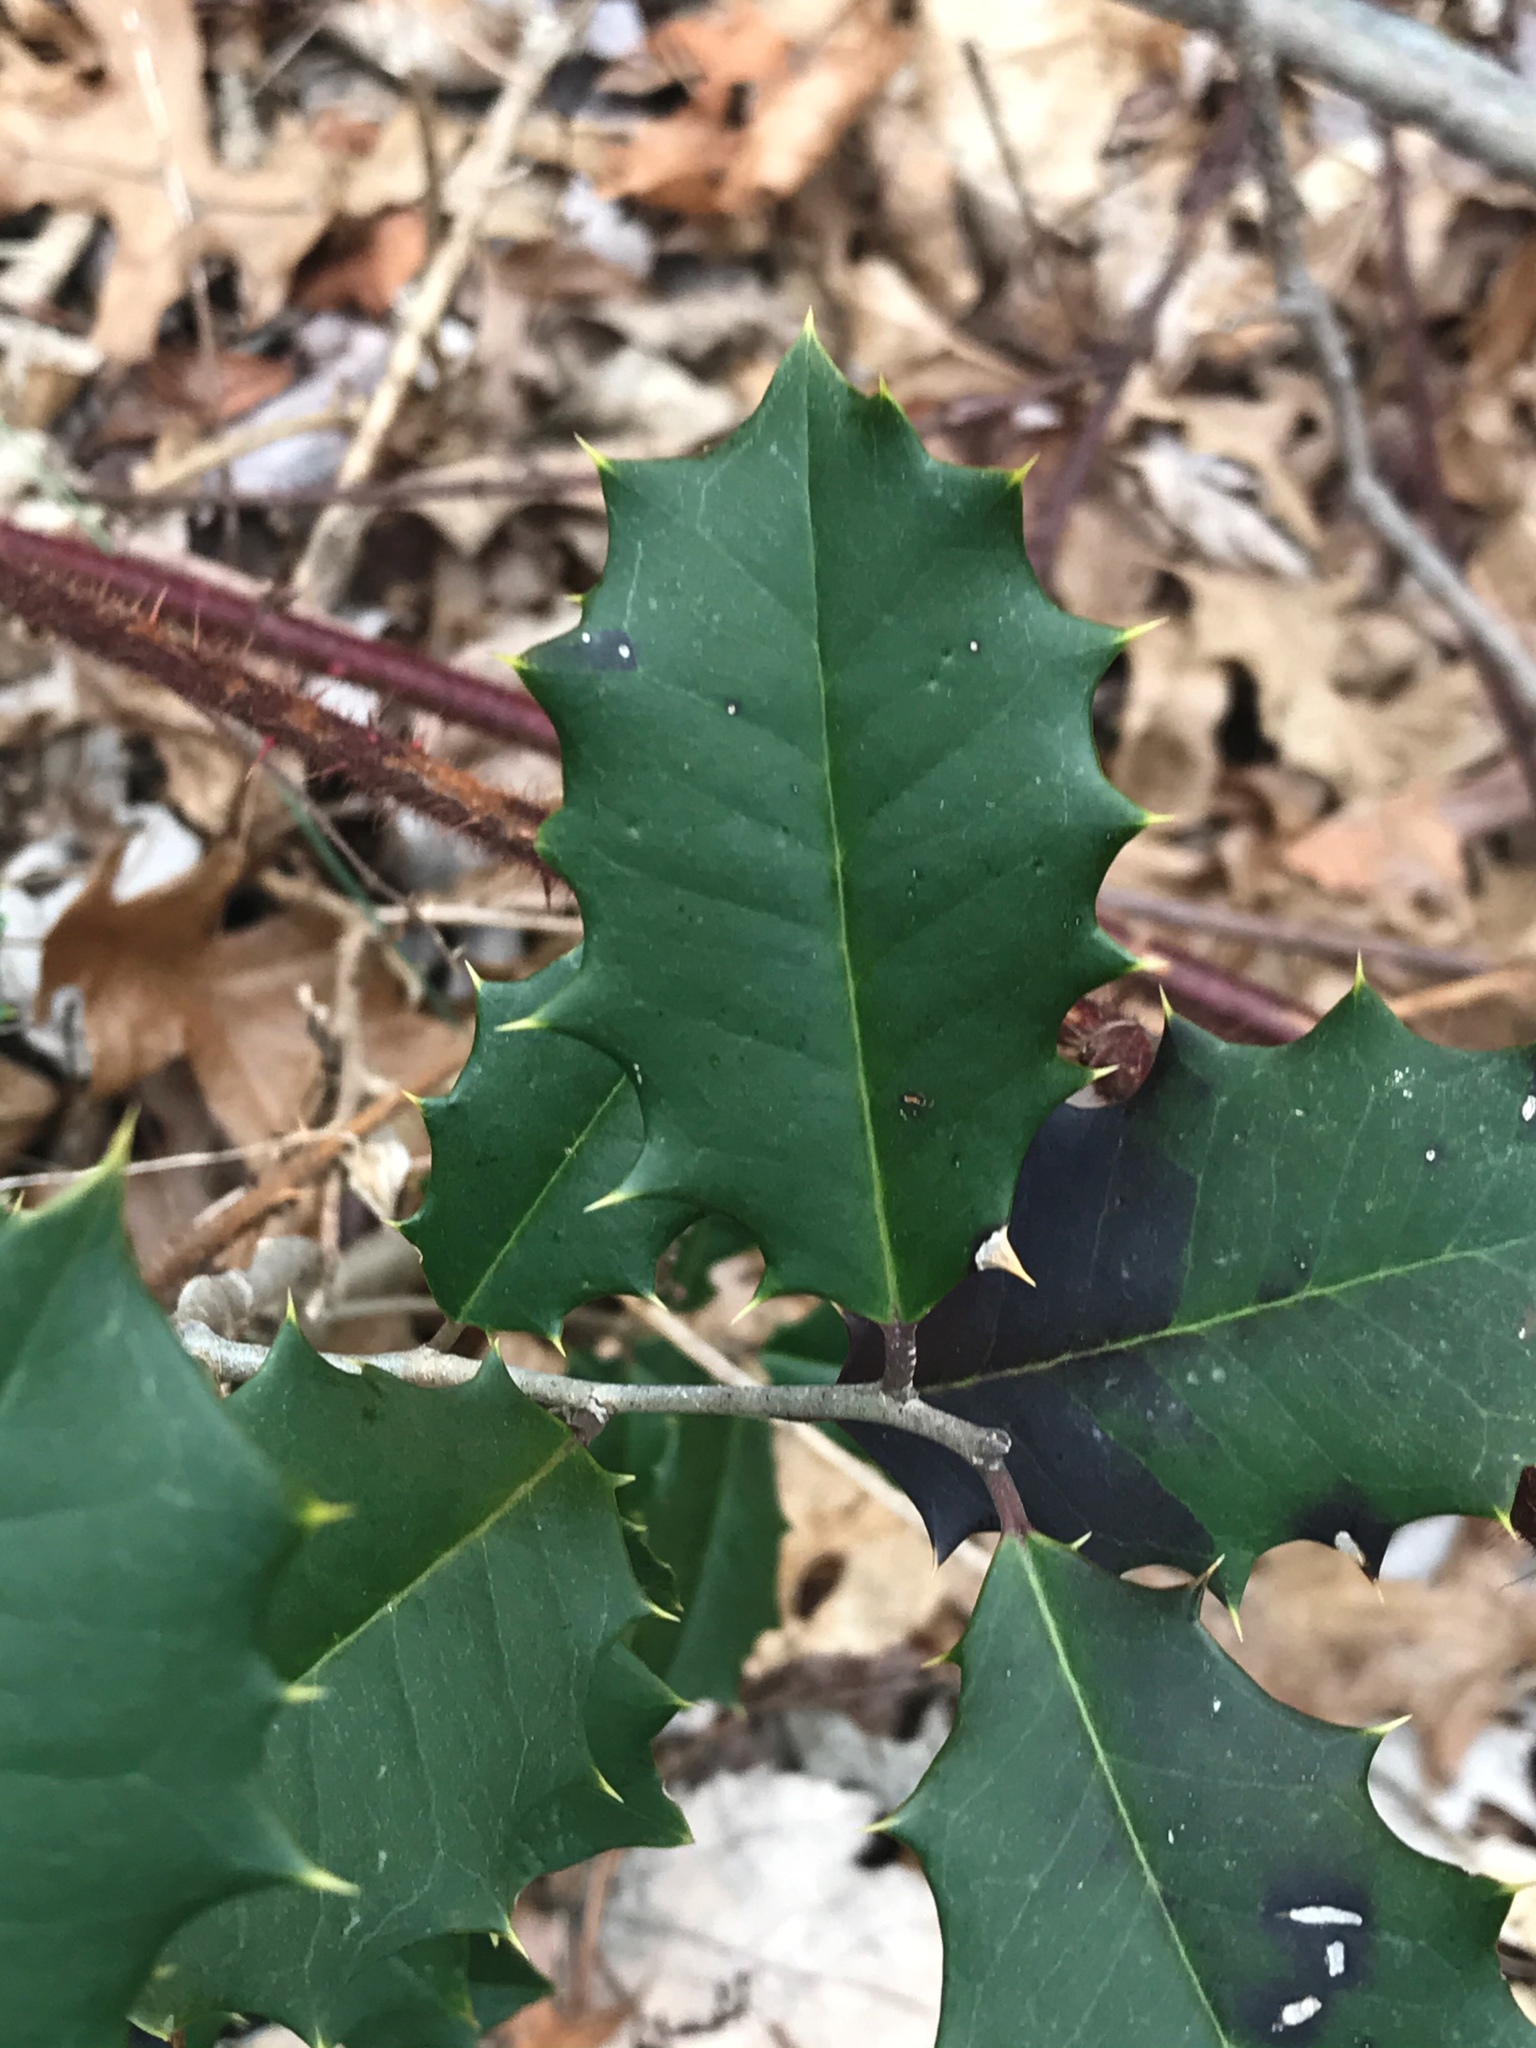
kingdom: Plantae
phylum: Tracheophyta
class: Magnoliopsida
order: Aquifoliales
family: Aquifoliaceae
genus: Ilex
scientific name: Ilex opaca
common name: American holly
